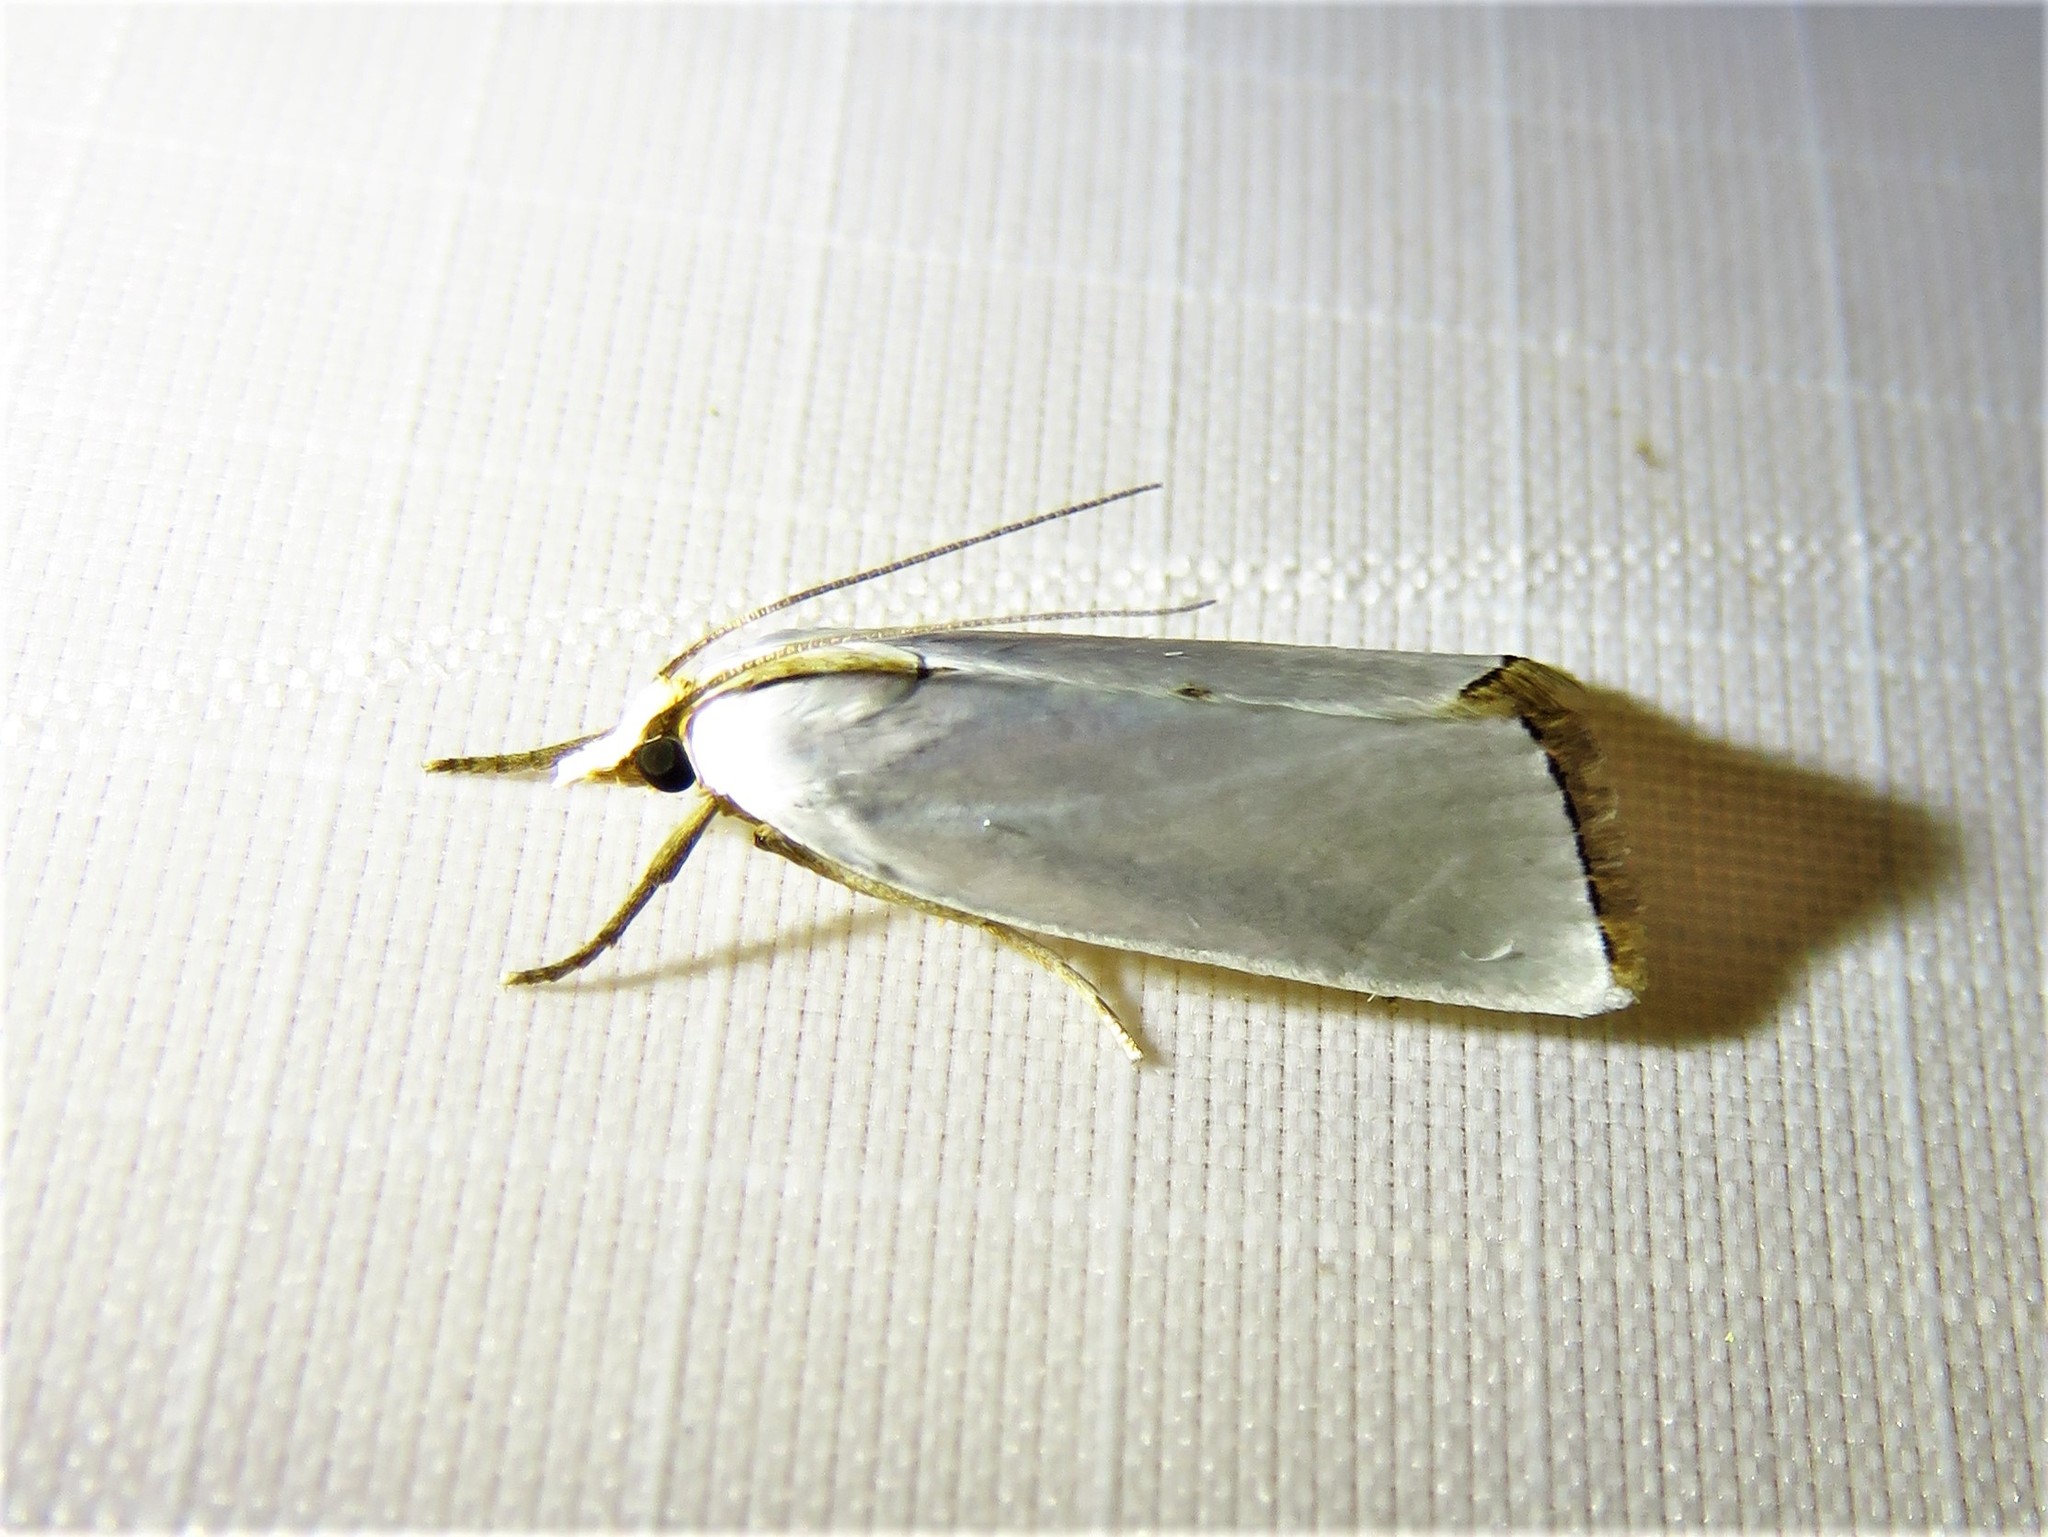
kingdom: Animalia
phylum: Arthropoda
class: Insecta
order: Lepidoptera
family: Crambidae
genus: Argyria
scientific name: Argyria nivalis
